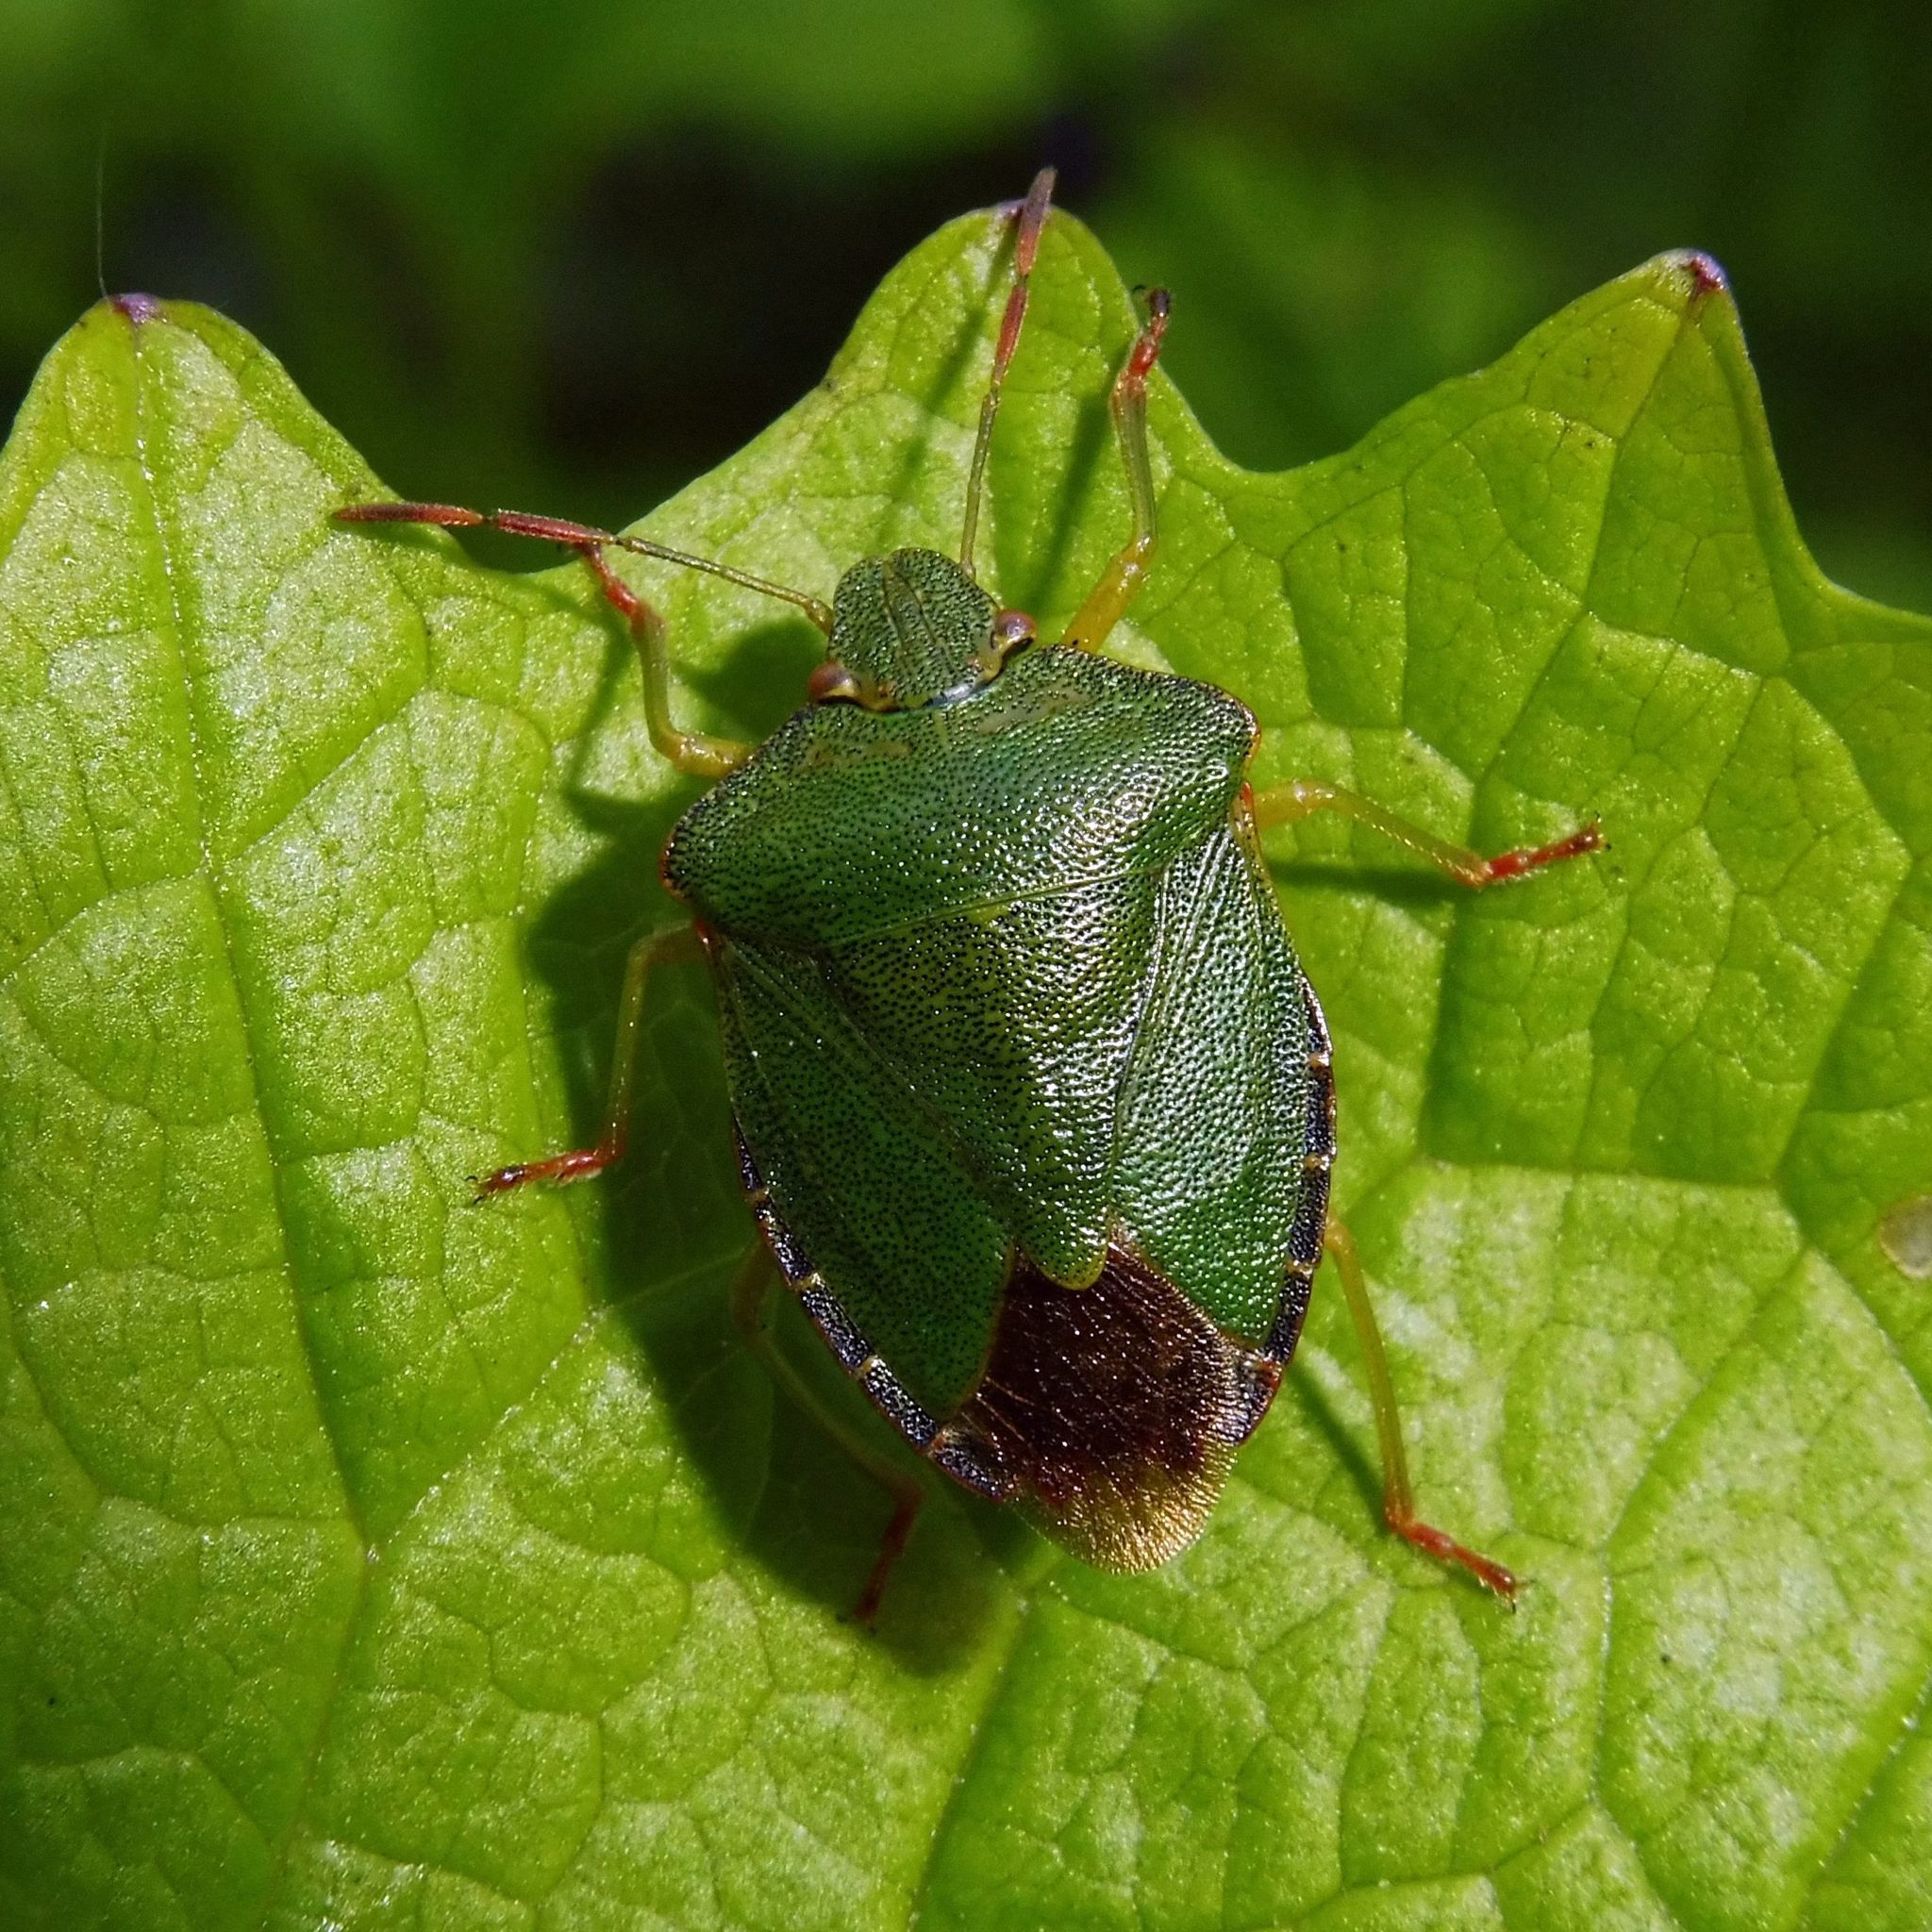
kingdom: Animalia
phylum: Arthropoda
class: Insecta
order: Hemiptera
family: Pentatomidae
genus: Palomena
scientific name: Palomena prasina
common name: Green shieldbug
